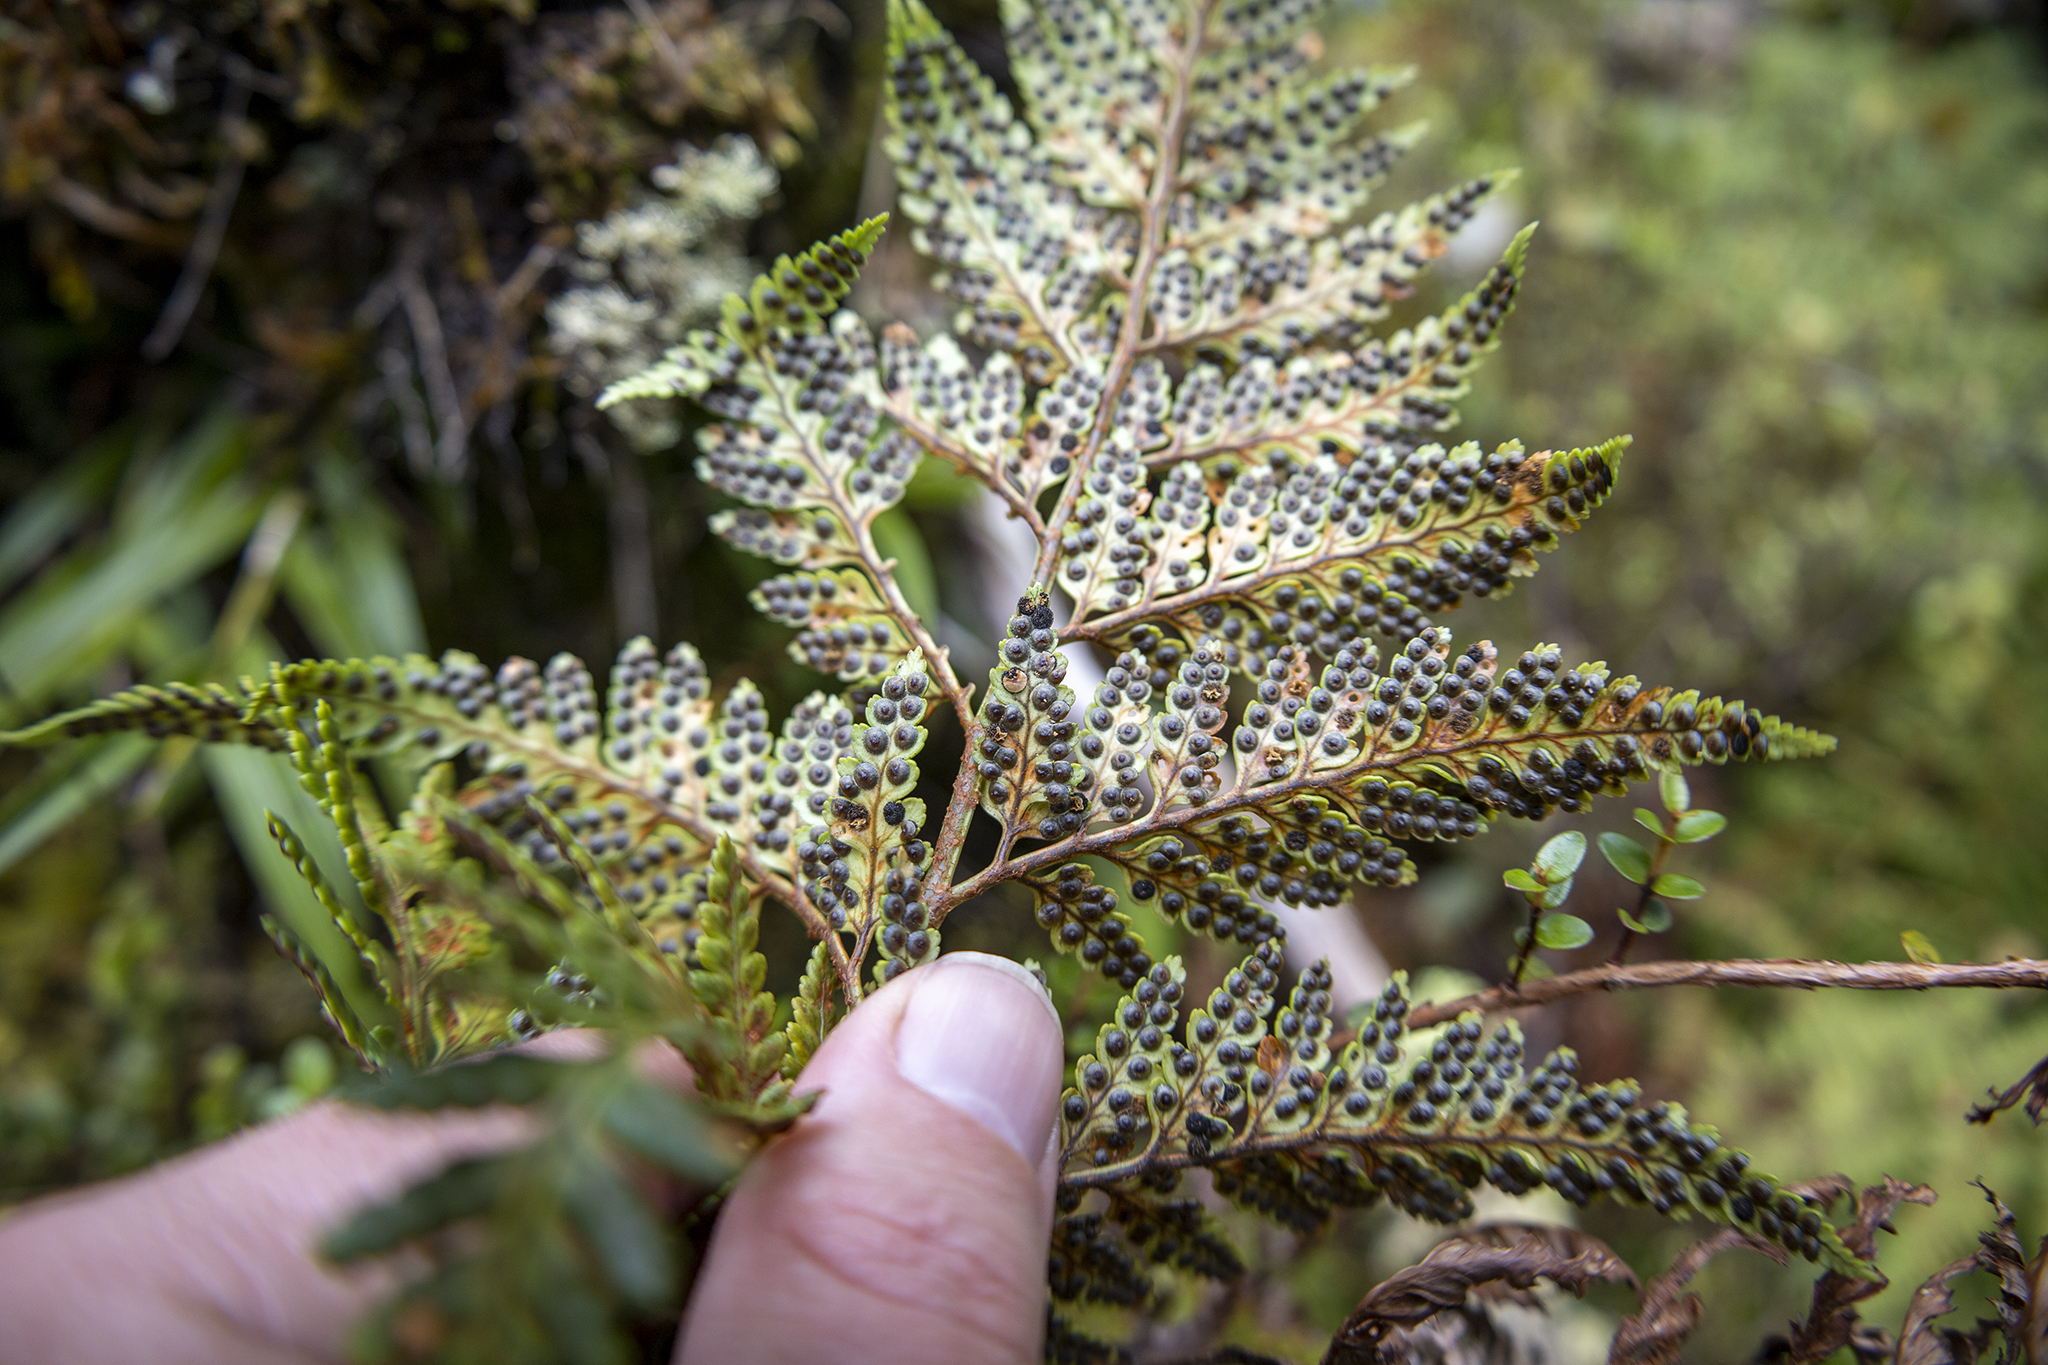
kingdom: Plantae
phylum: Tracheophyta
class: Polypodiopsida
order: Polypodiales
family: Dryopteridaceae
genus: Rumohra
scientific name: Rumohra adiantiformis
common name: Leather fern
